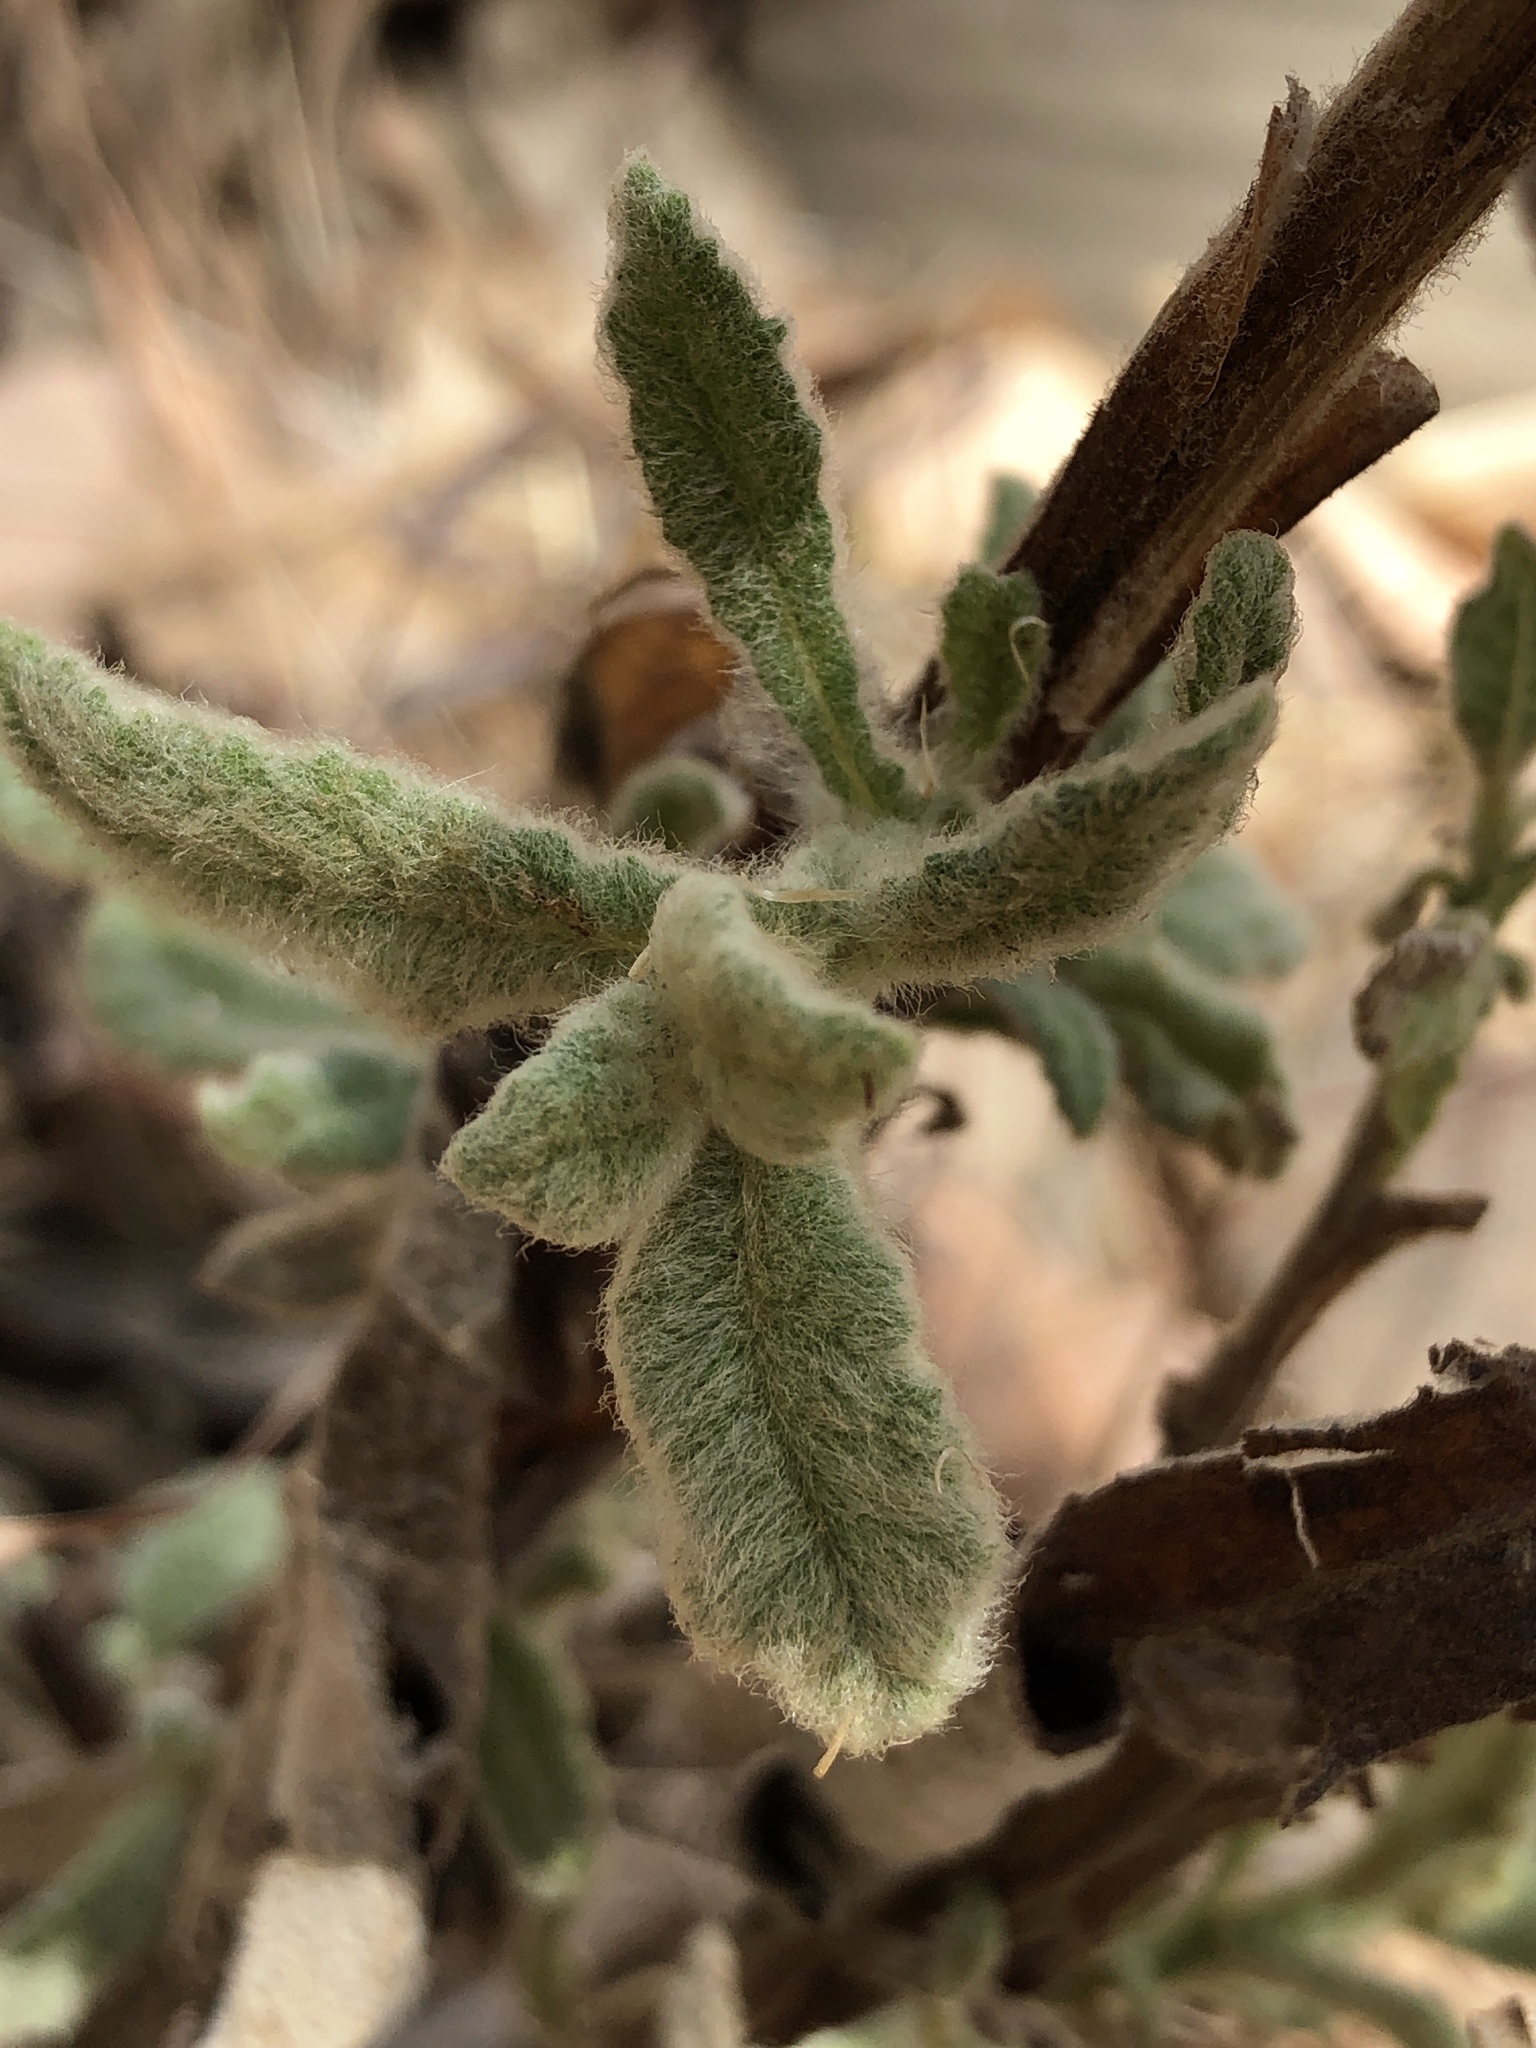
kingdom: Plantae
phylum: Tracheophyta
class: Magnoliopsida
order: Asterales
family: Asteraceae
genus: Pterocaulon
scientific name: Pterocaulon sphacelatum
